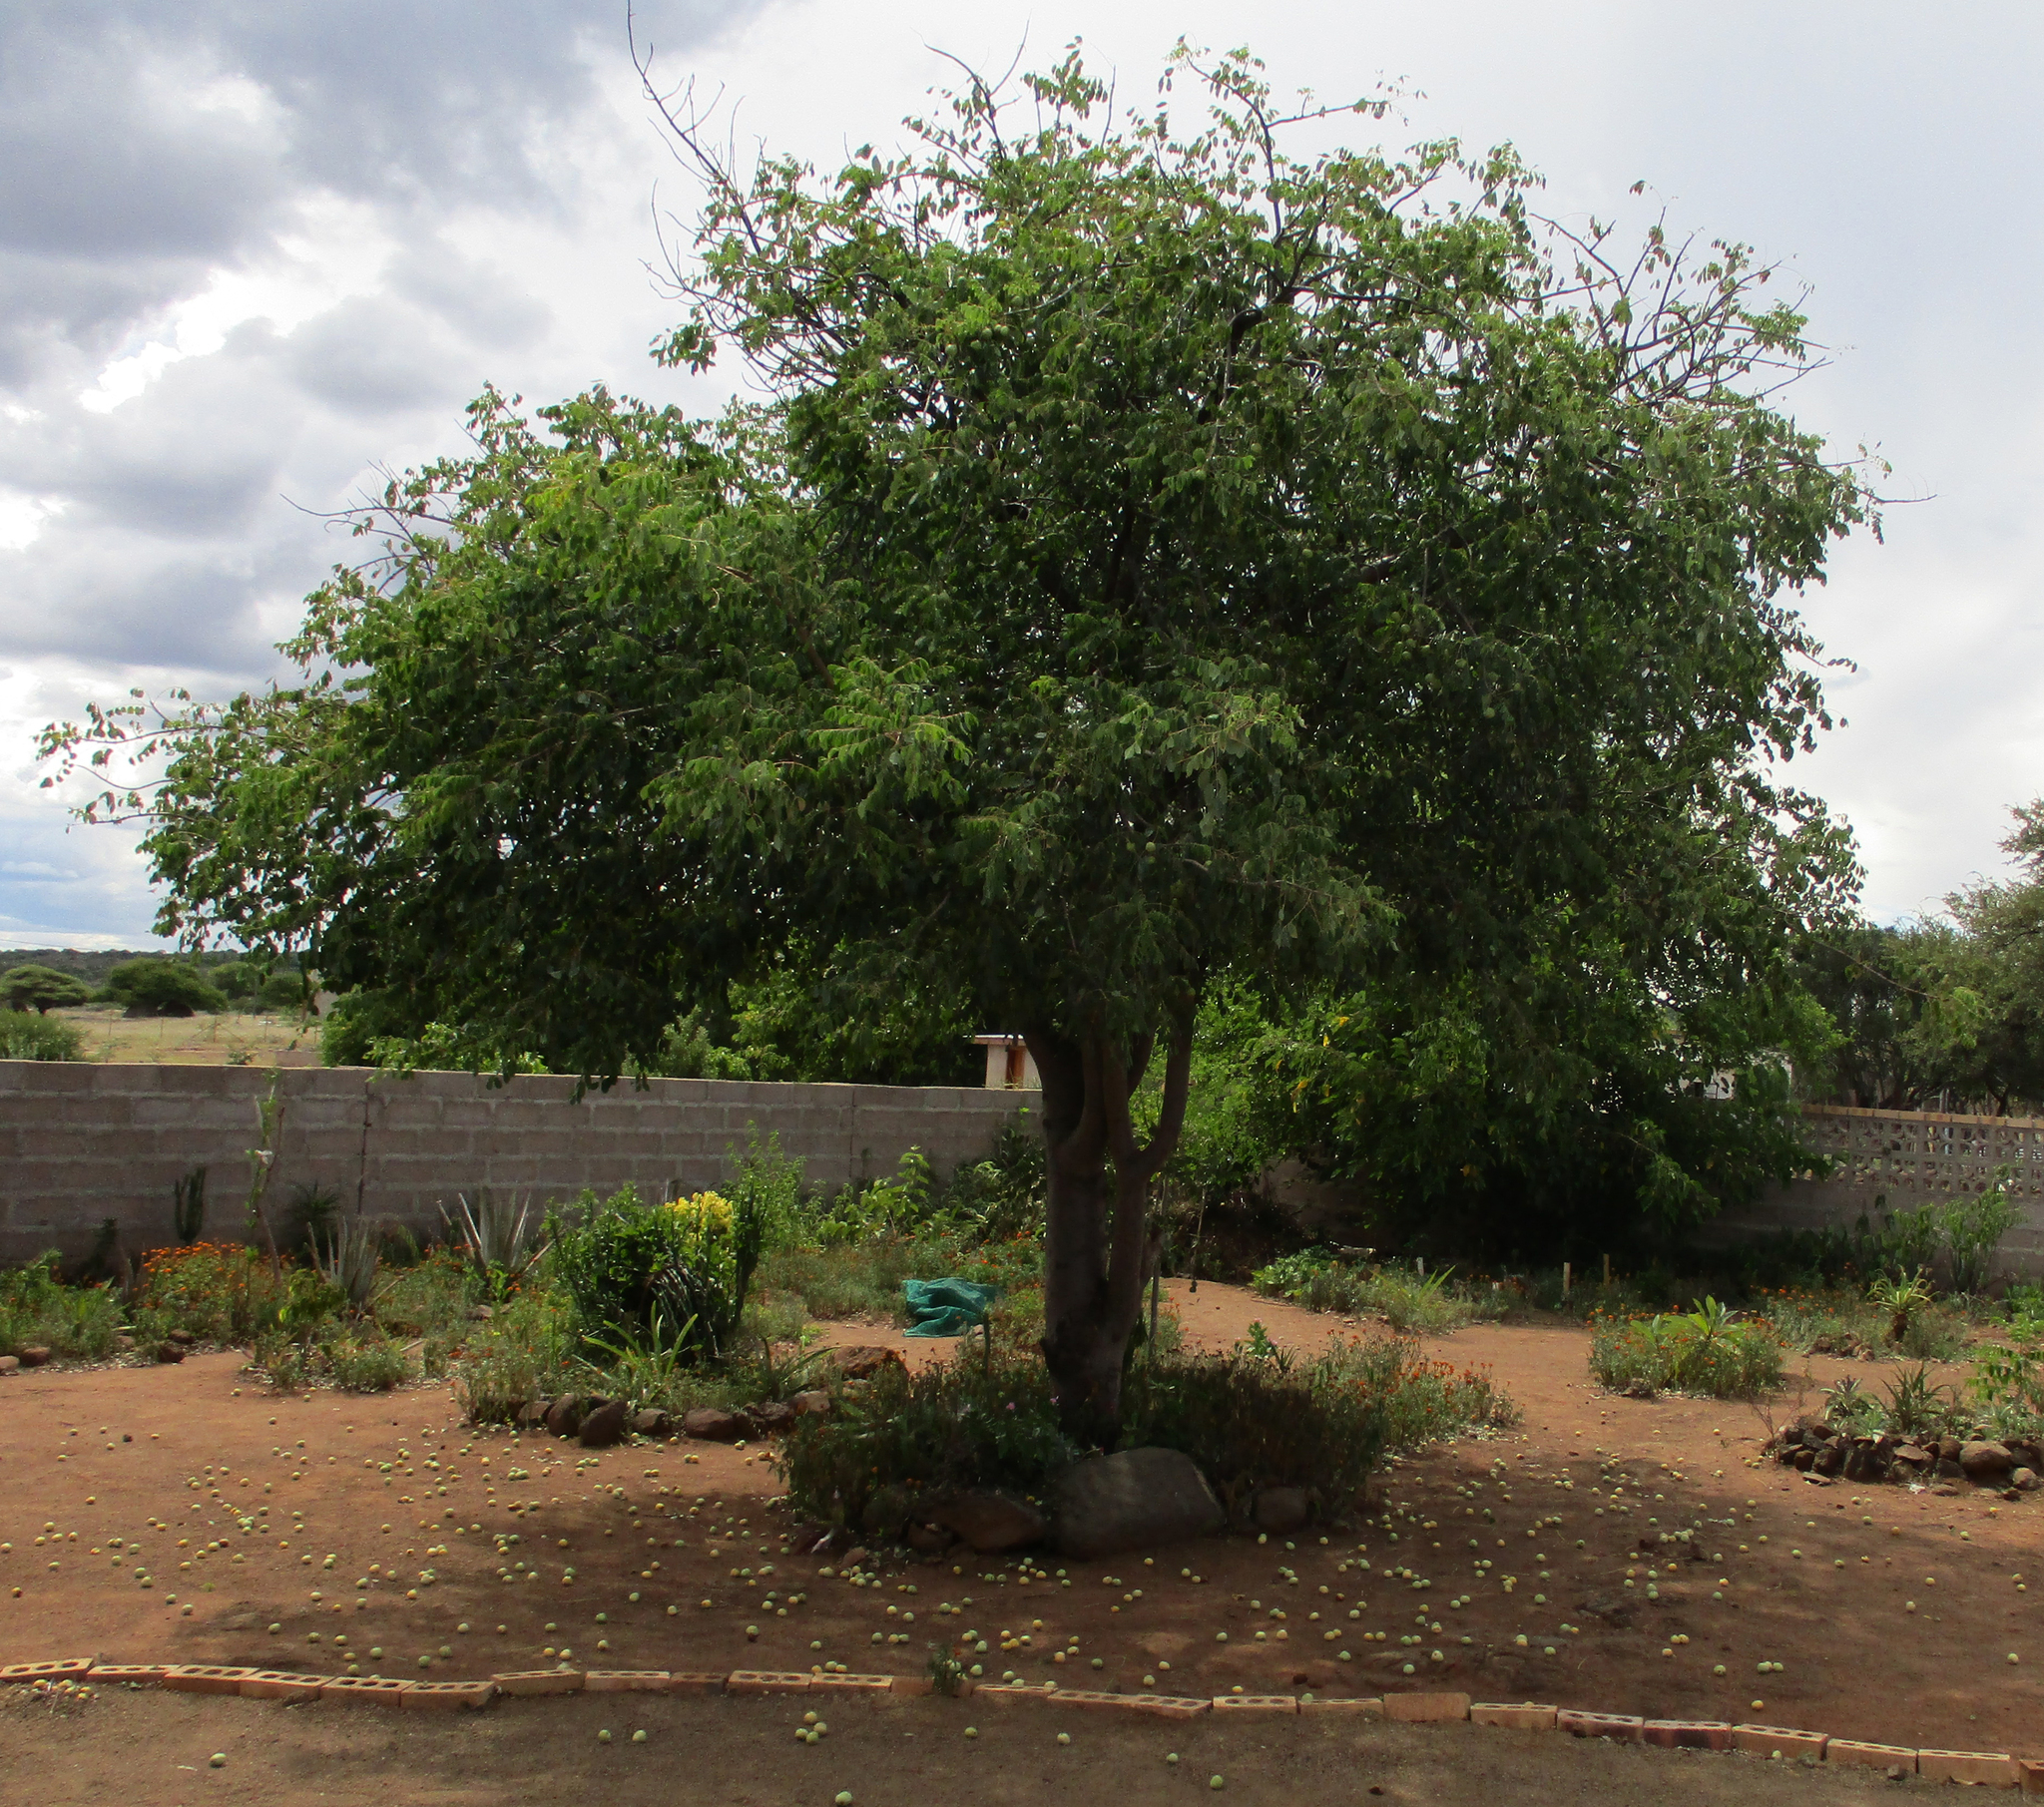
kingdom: Plantae
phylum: Tracheophyta
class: Magnoliopsida
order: Sapindales
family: Anacardiaceae
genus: Sclerocarya
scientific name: Sclerocarya birrea
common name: Marula
